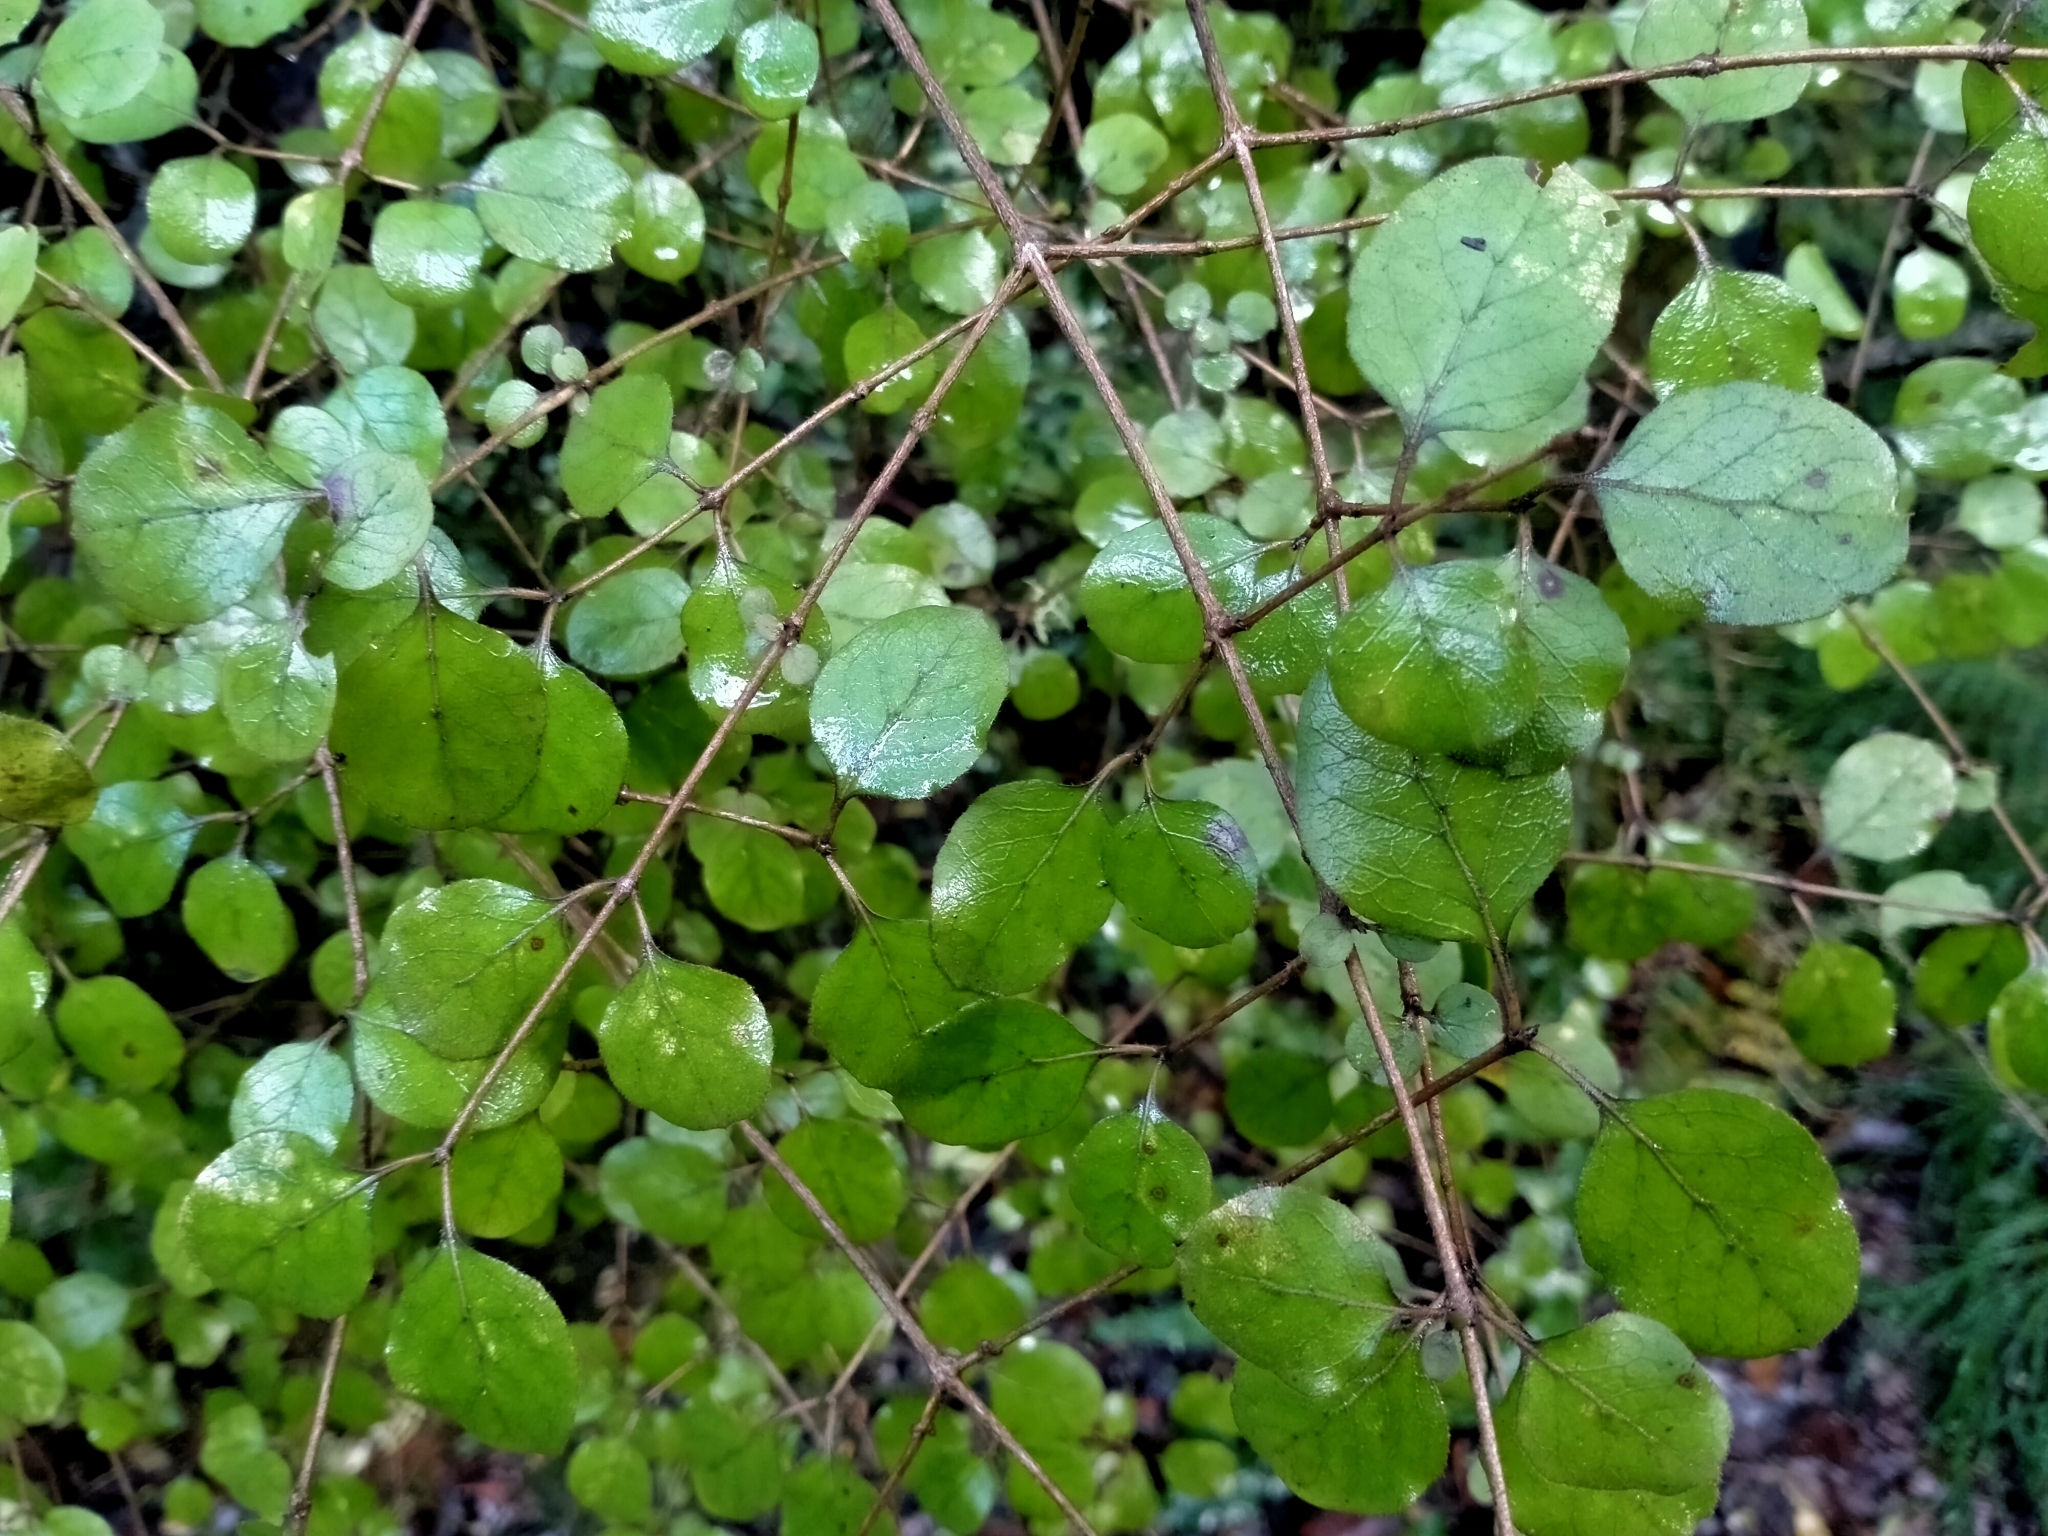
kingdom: Plantae
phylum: Tracheophyta
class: Magnoliopsida
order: Gentianales
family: Rubiaceae
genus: Coprosma
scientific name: Coprosma rotundifolia
